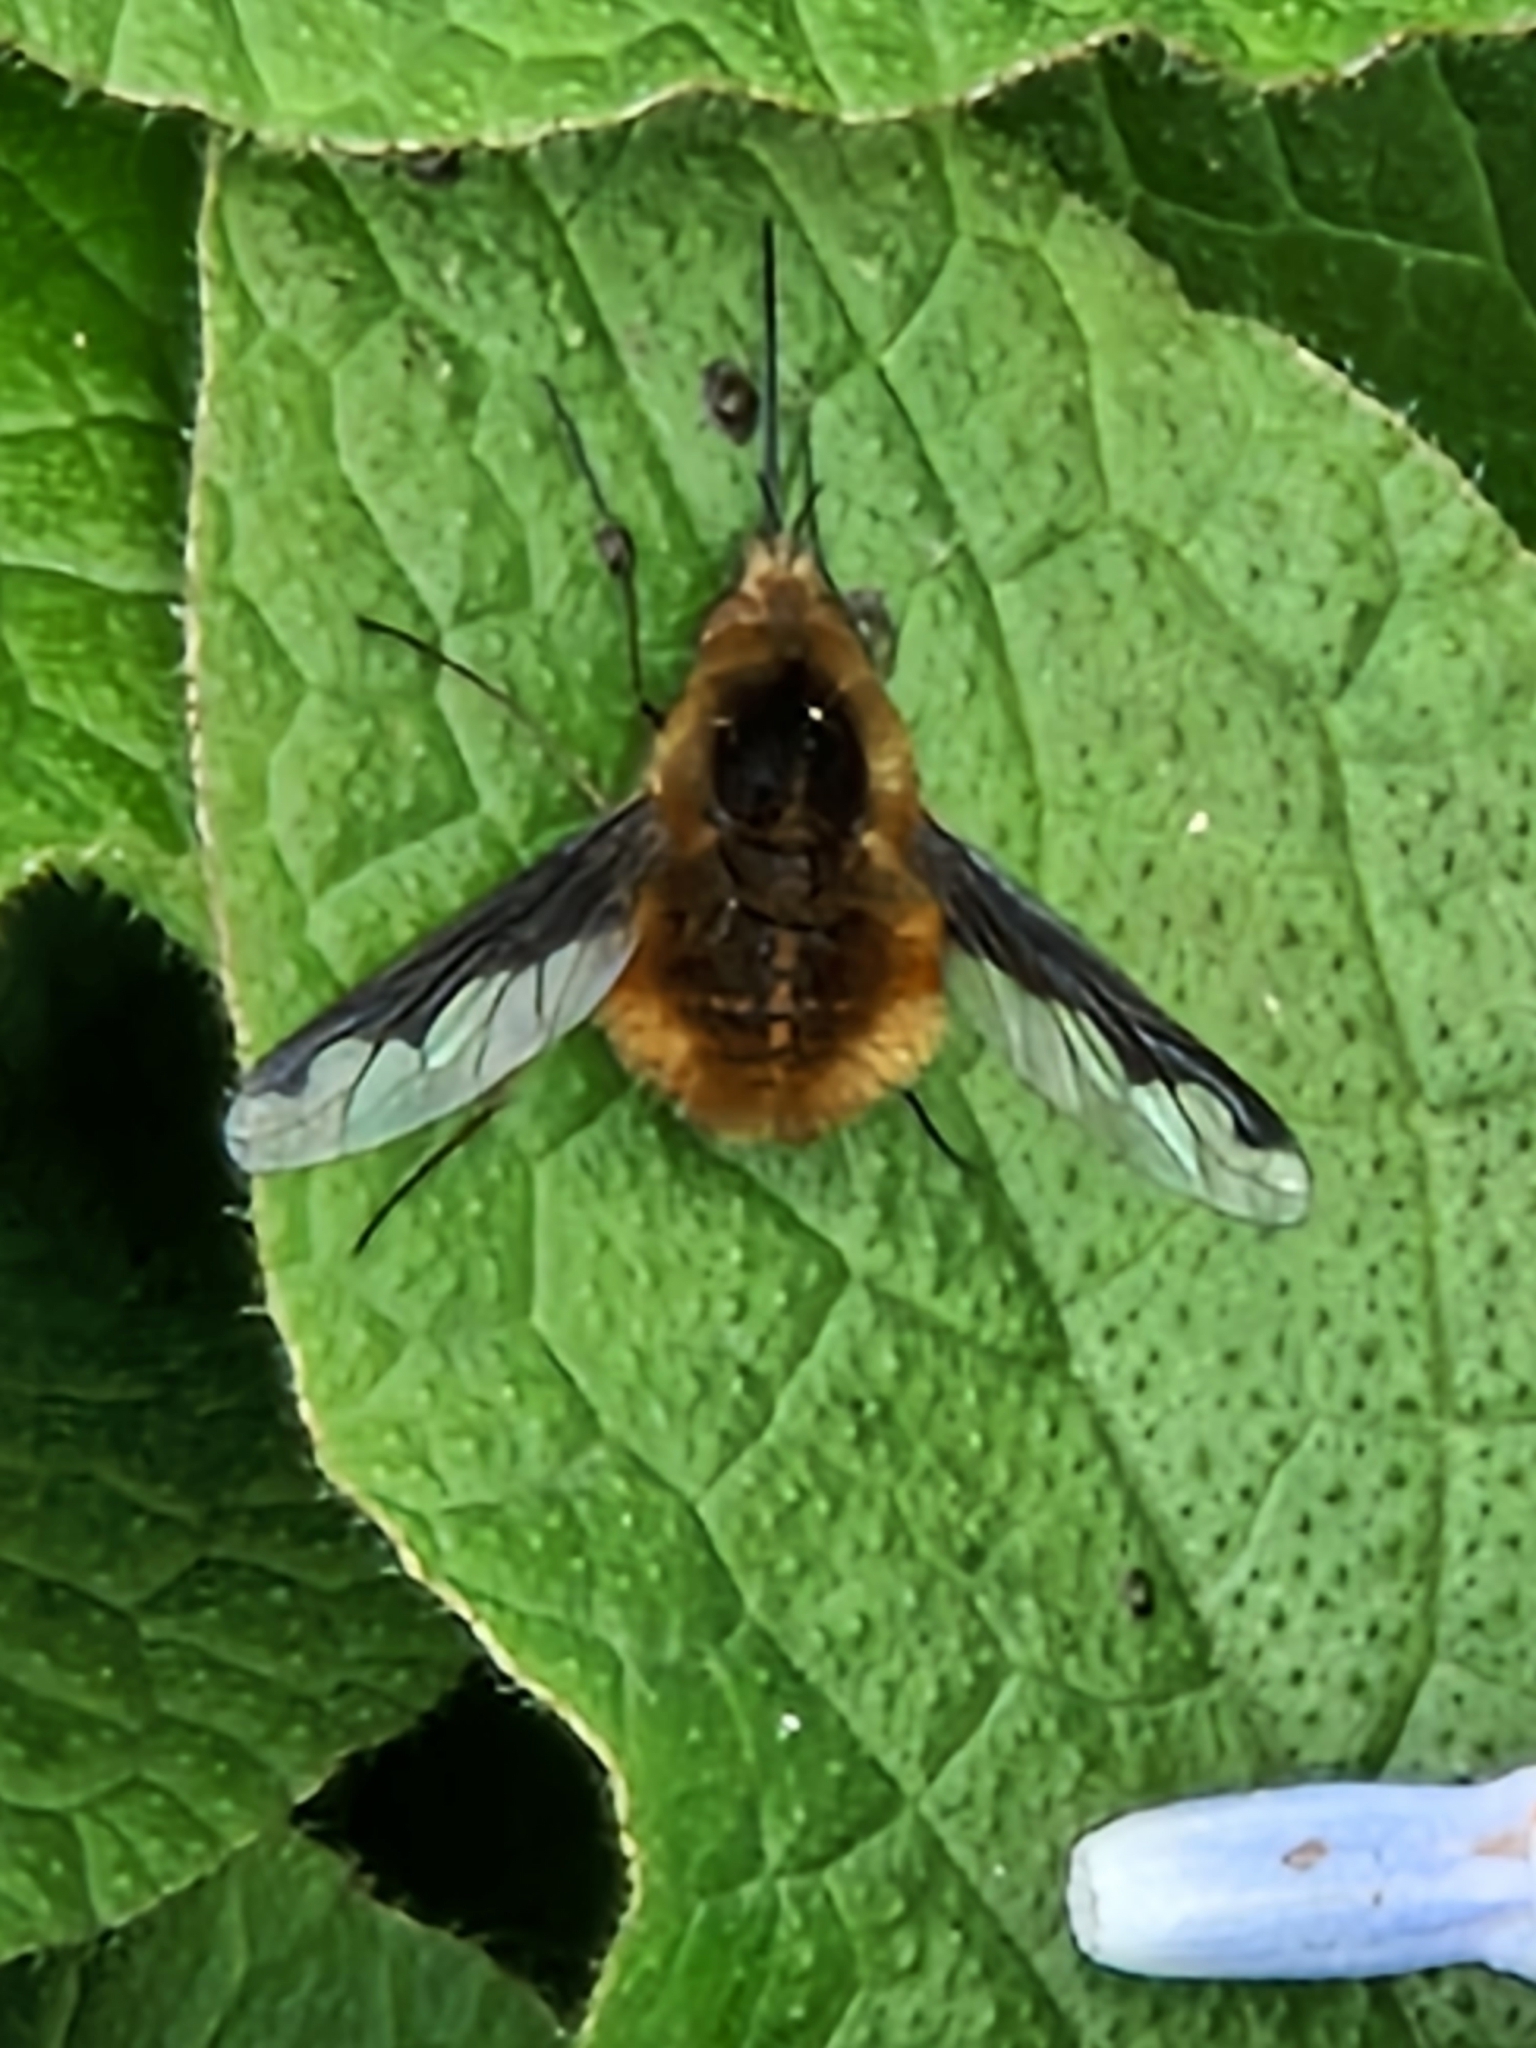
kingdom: Animalia
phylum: Arthropoda
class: Insecta
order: Diptera
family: Bombyliidae
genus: Bombylius
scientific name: Bombylius major
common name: Bee fly
